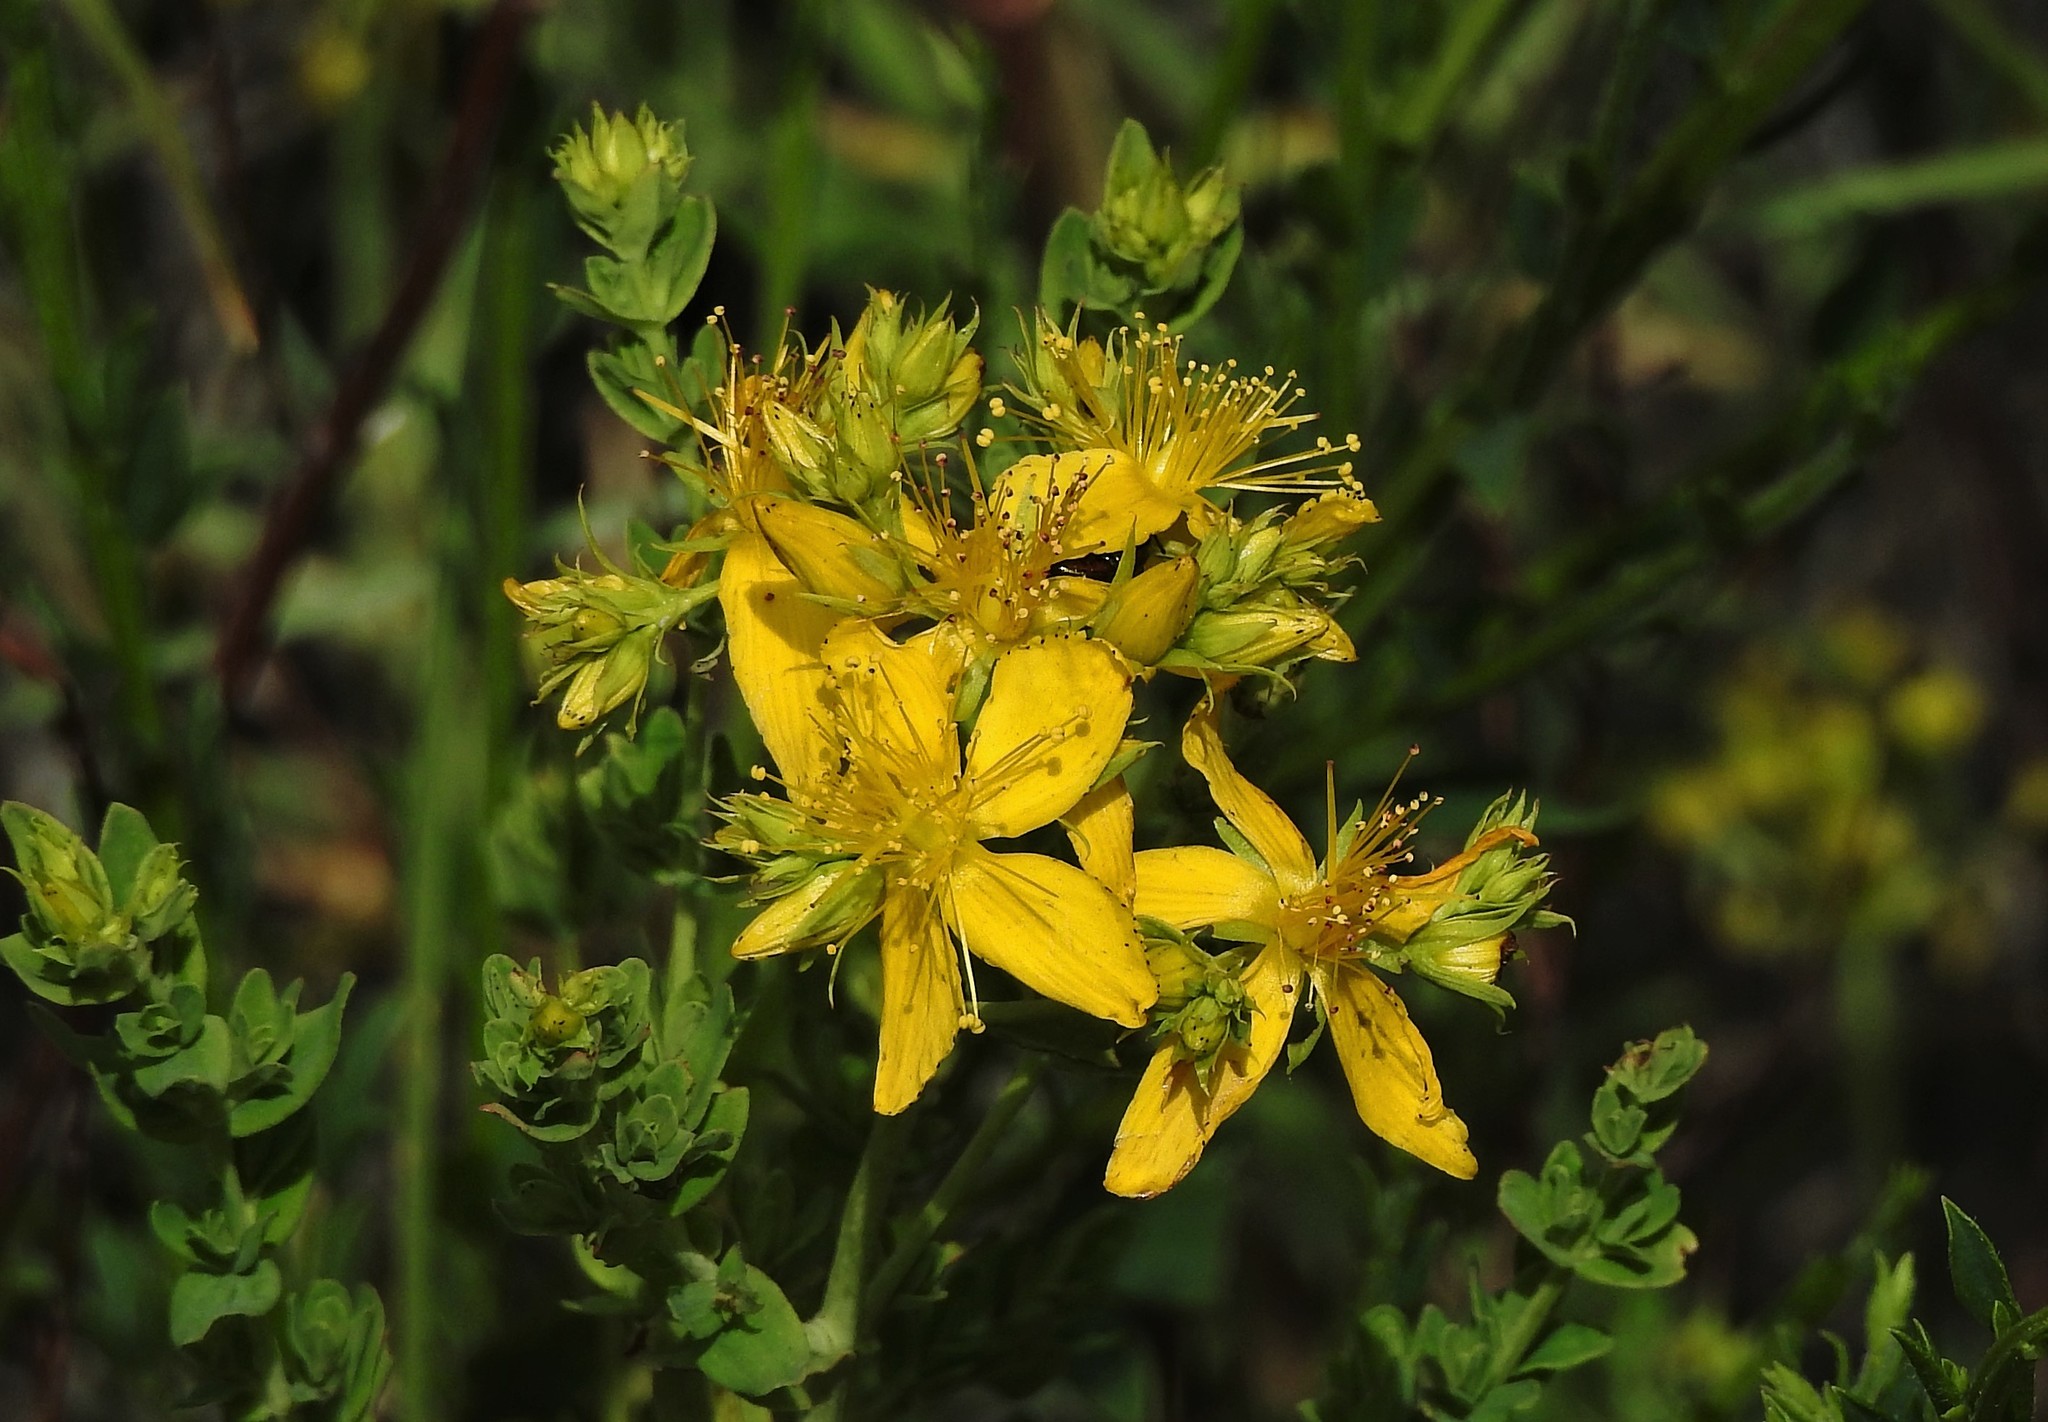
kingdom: Plantae
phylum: Tracheophyta
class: Magnoliopsida
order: Malpighiales
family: Hypericaceae
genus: Hypericum
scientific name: Hypericum perforatum
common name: Common st. johnswort
